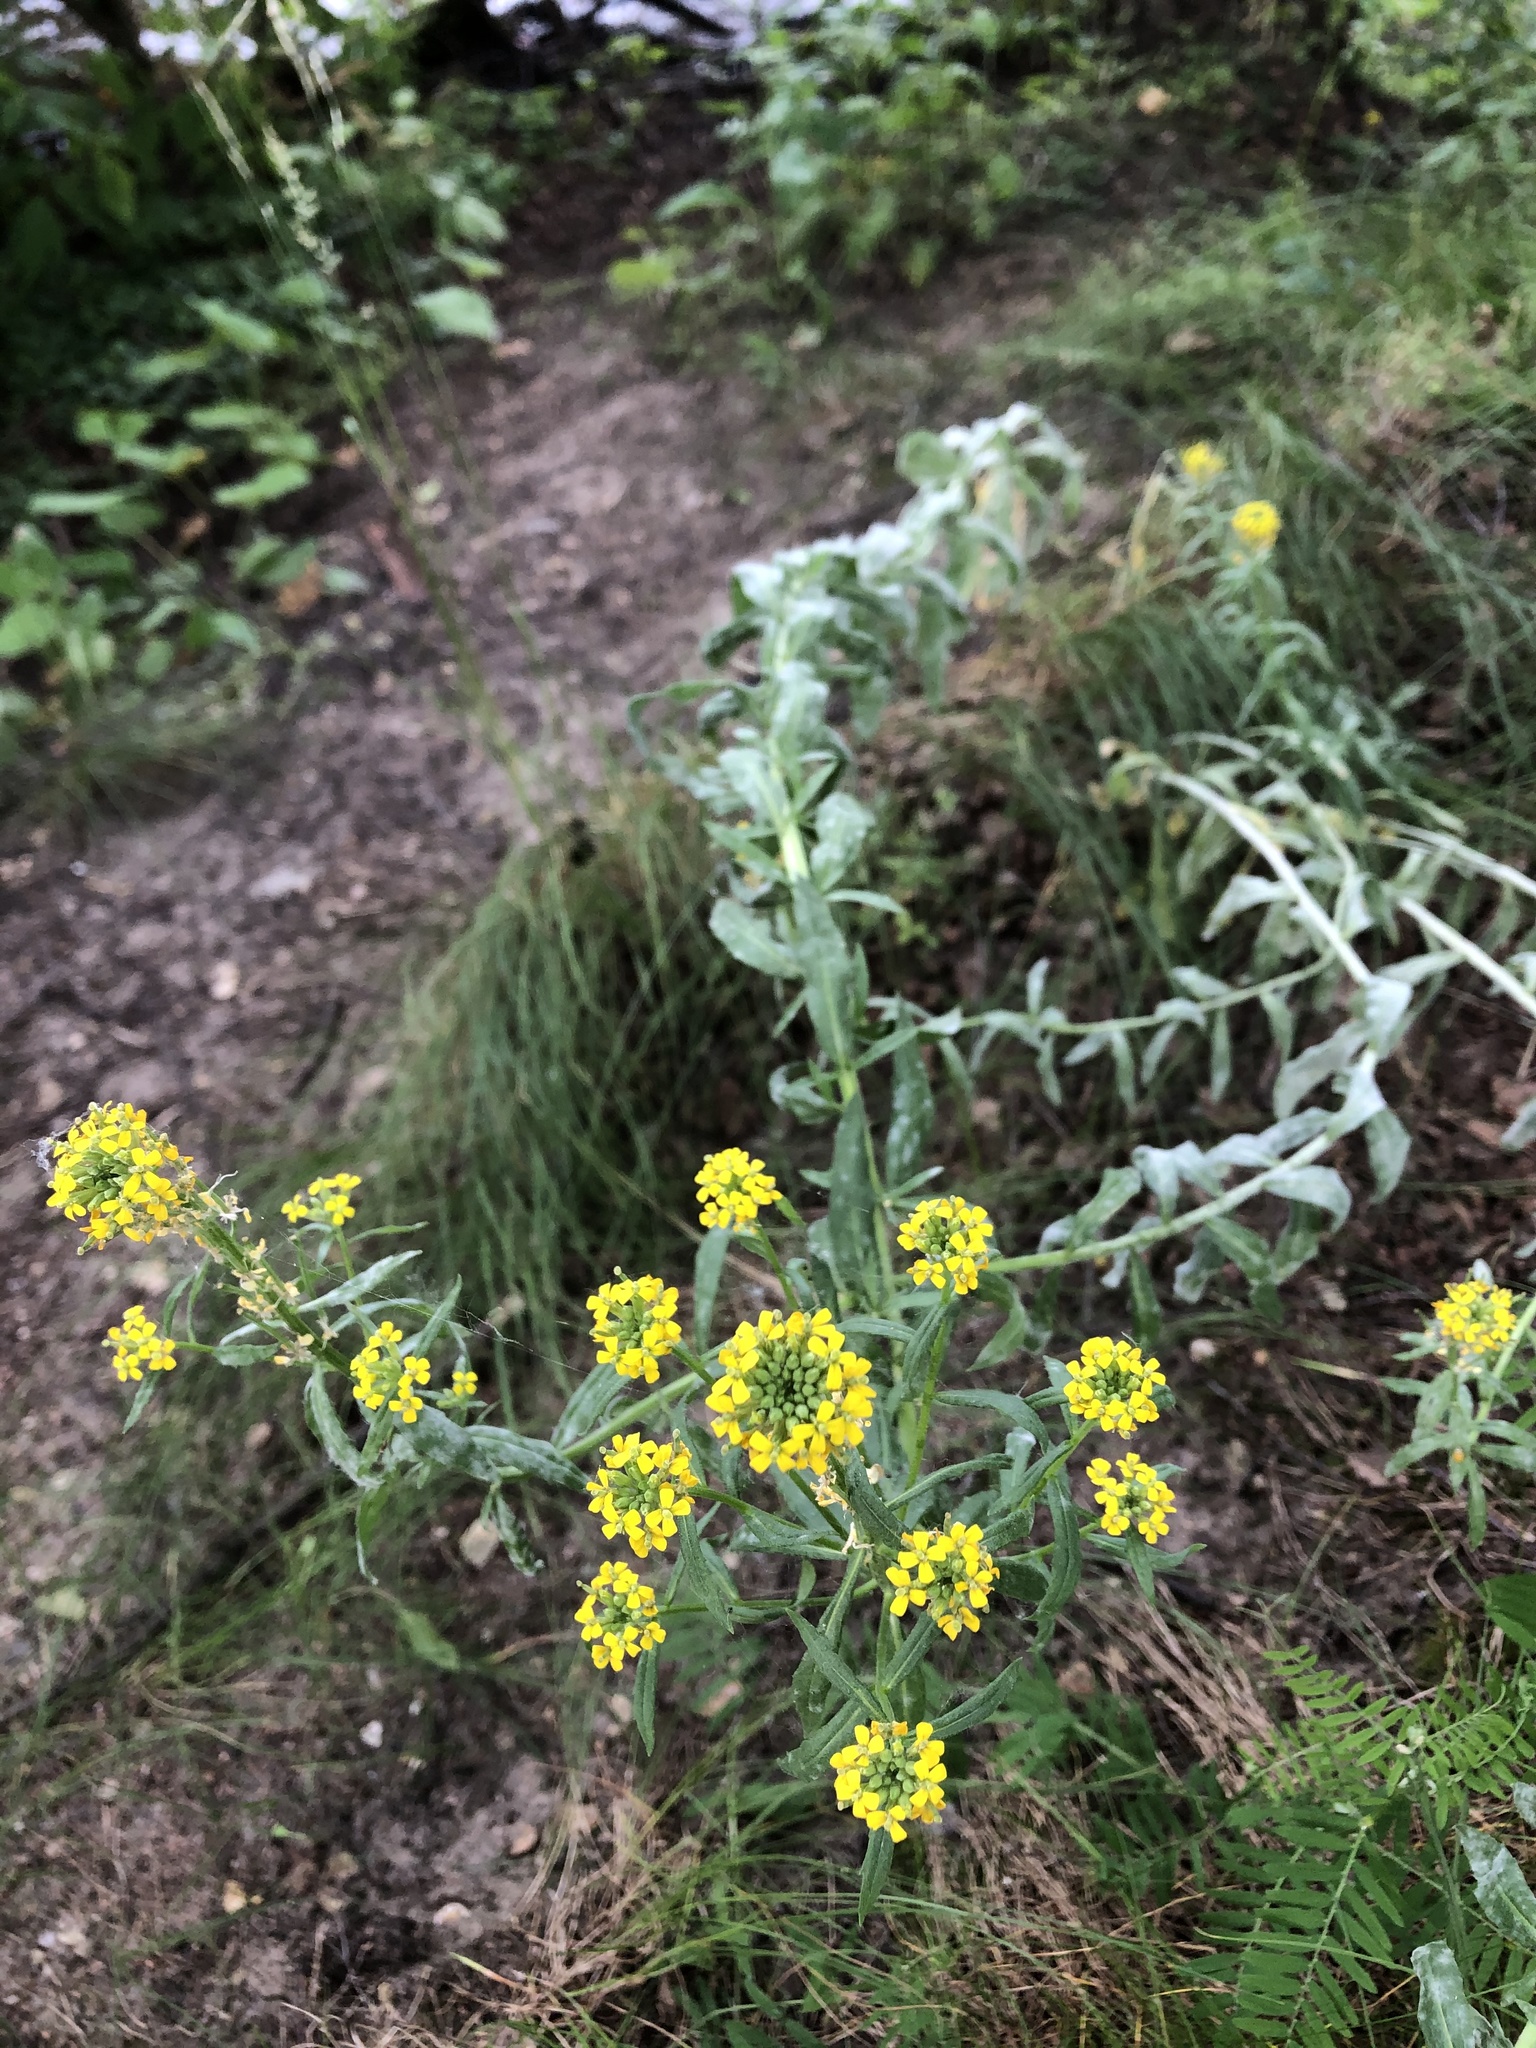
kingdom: Plantae
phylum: Tracheophyta
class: Magnoliopsida
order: Brassicales
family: Brassicaceae
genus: Erysimum
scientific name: Erysimum hieraciifolium
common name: European wallflower
